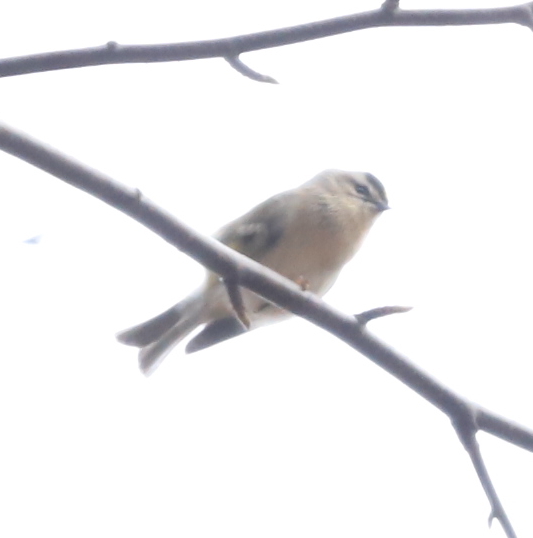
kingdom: Animalia
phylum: Chordata
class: Aves
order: Passeriformes
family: Regulidae
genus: Regulus
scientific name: Regulus satrapa
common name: Golden-crowned kinglet
